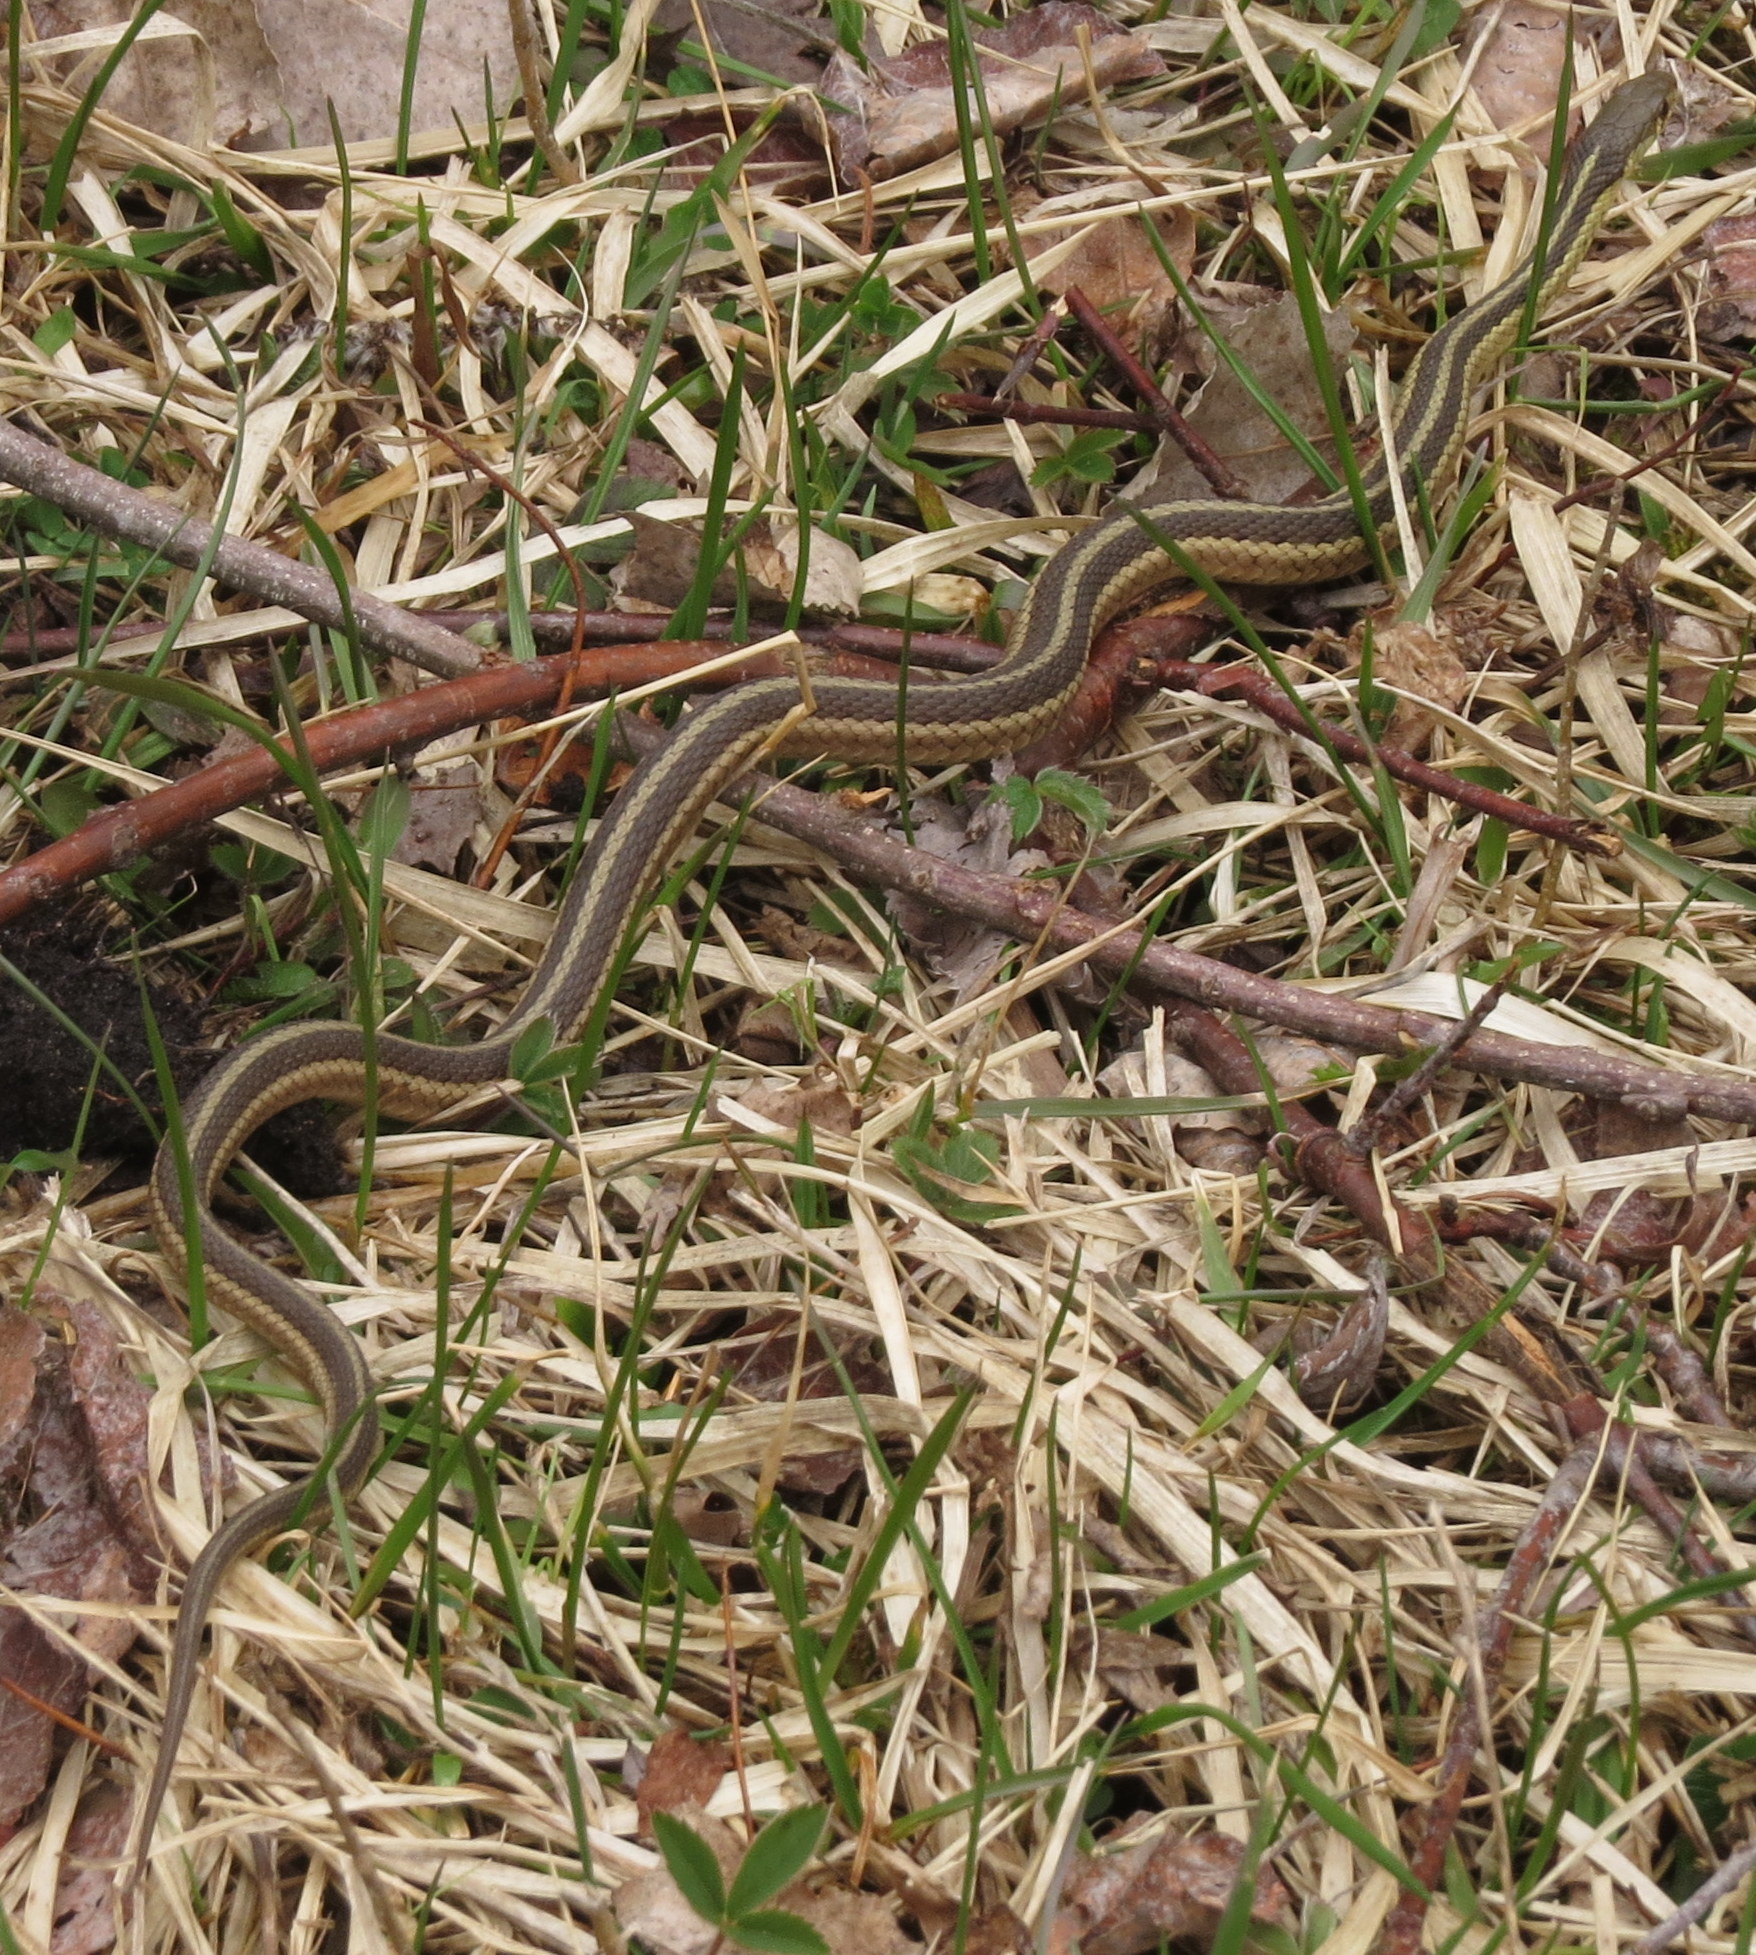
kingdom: Animalia
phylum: Chordata
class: Squamata
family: Colubridae
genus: Thamnophis
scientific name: Thamnophis sirtalis
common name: Common garter snake
